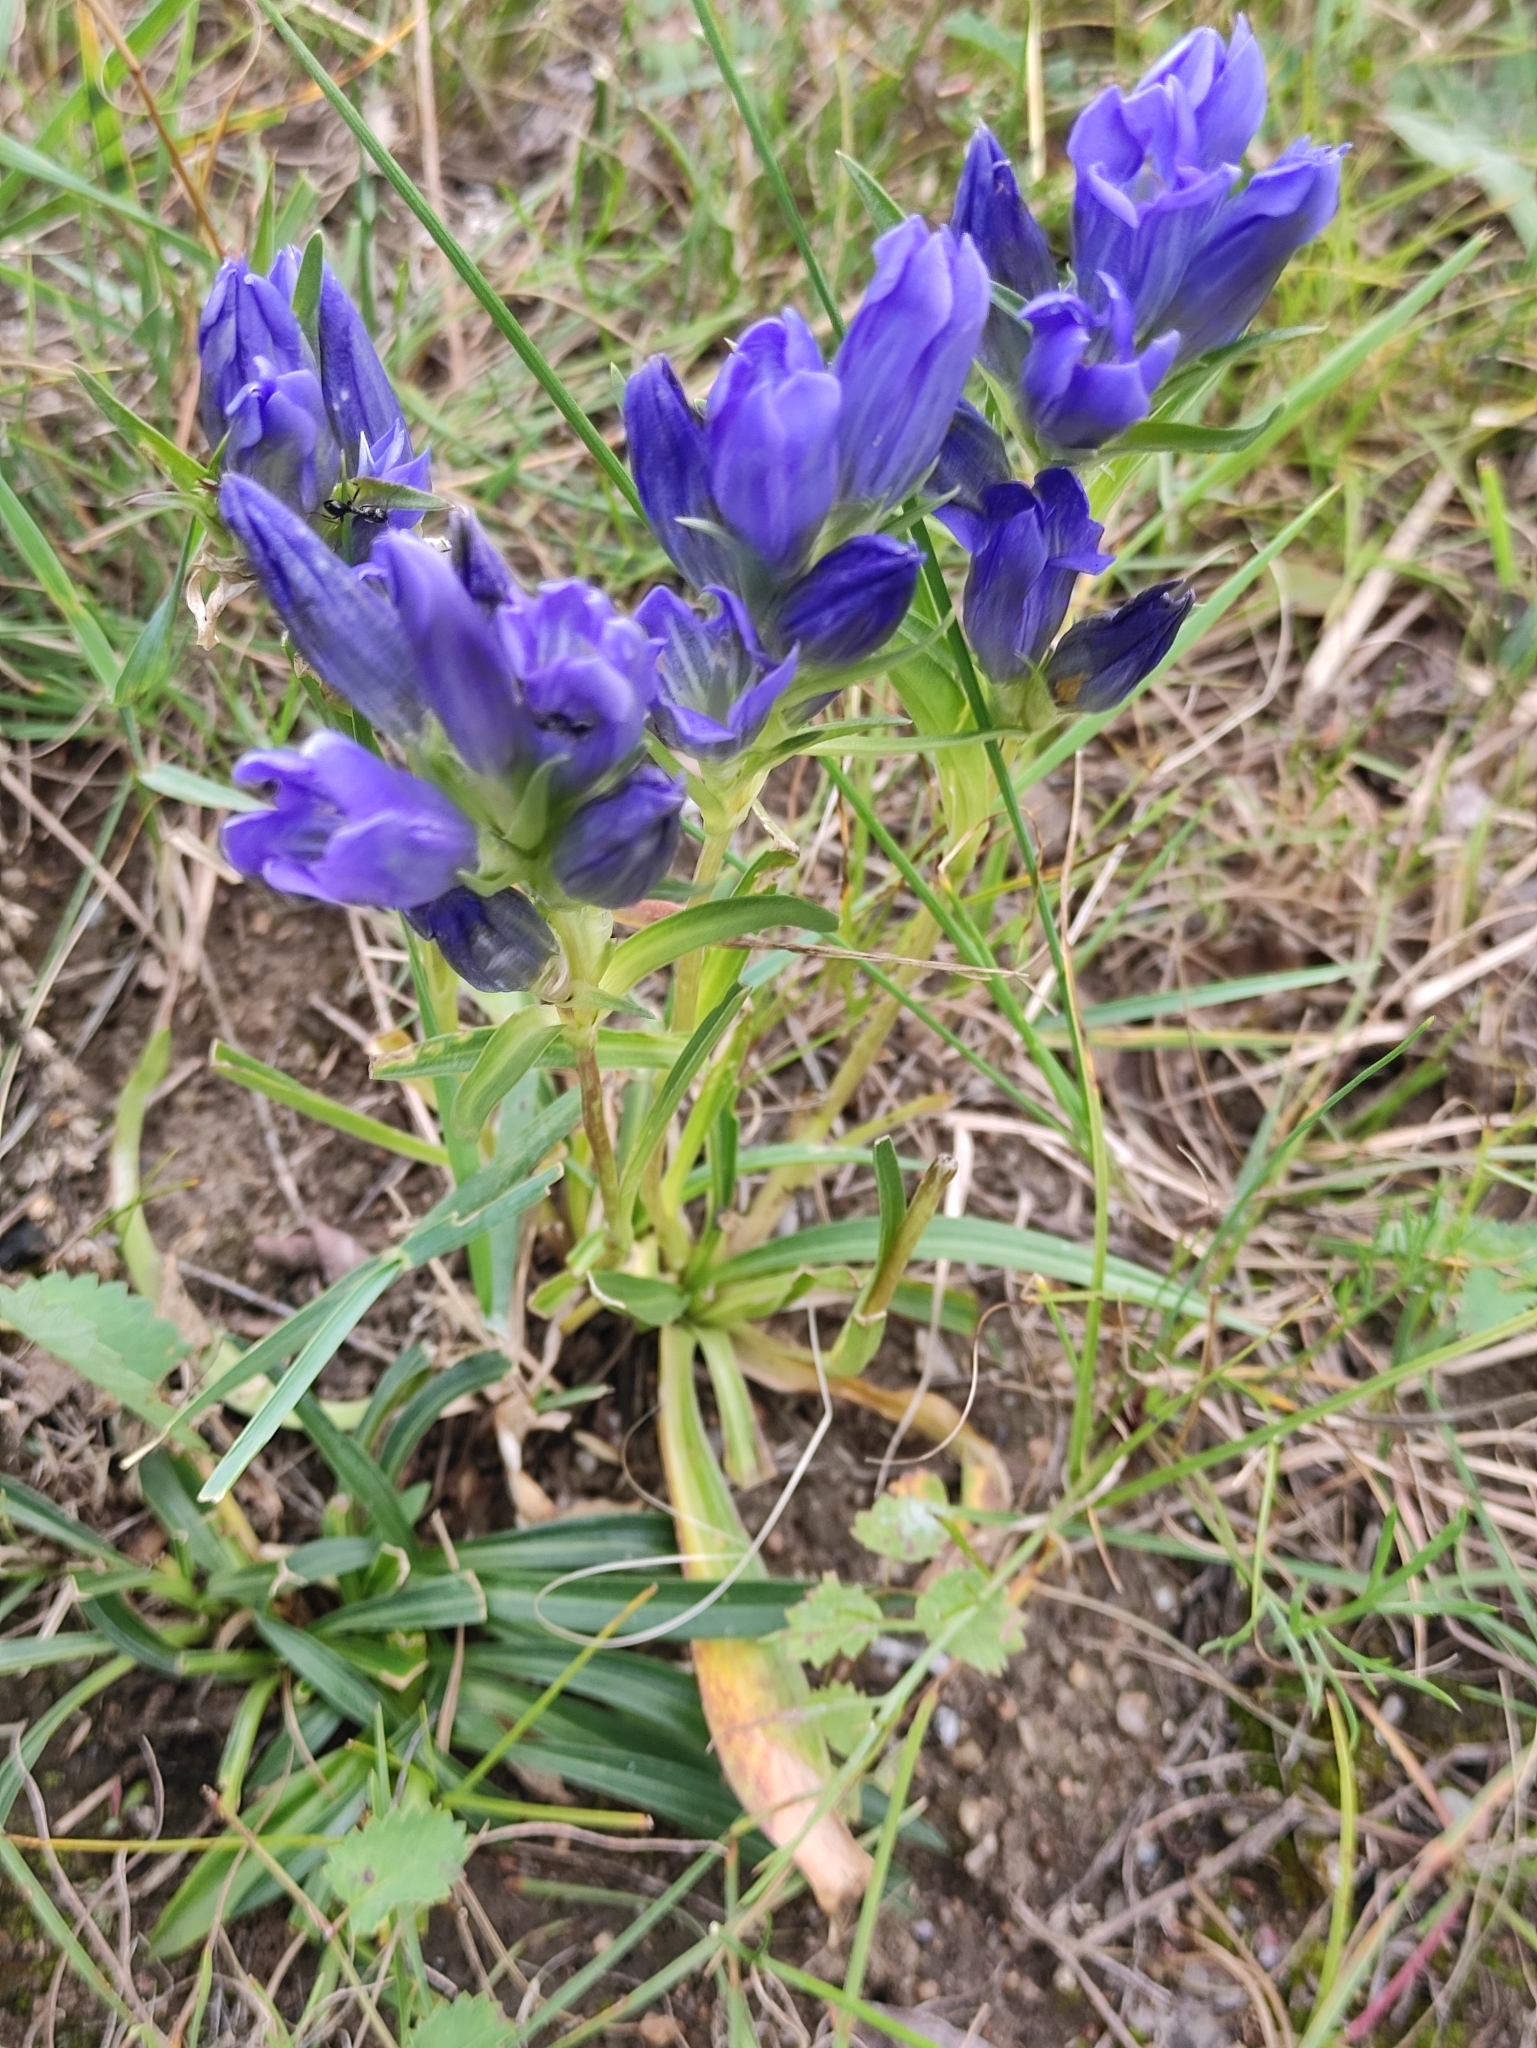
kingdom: Plantae
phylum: Tracheophyta
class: Magnoliopsida
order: Gentianales
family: Gentianaceae
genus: Gentiana
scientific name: Gentiana decumbens
